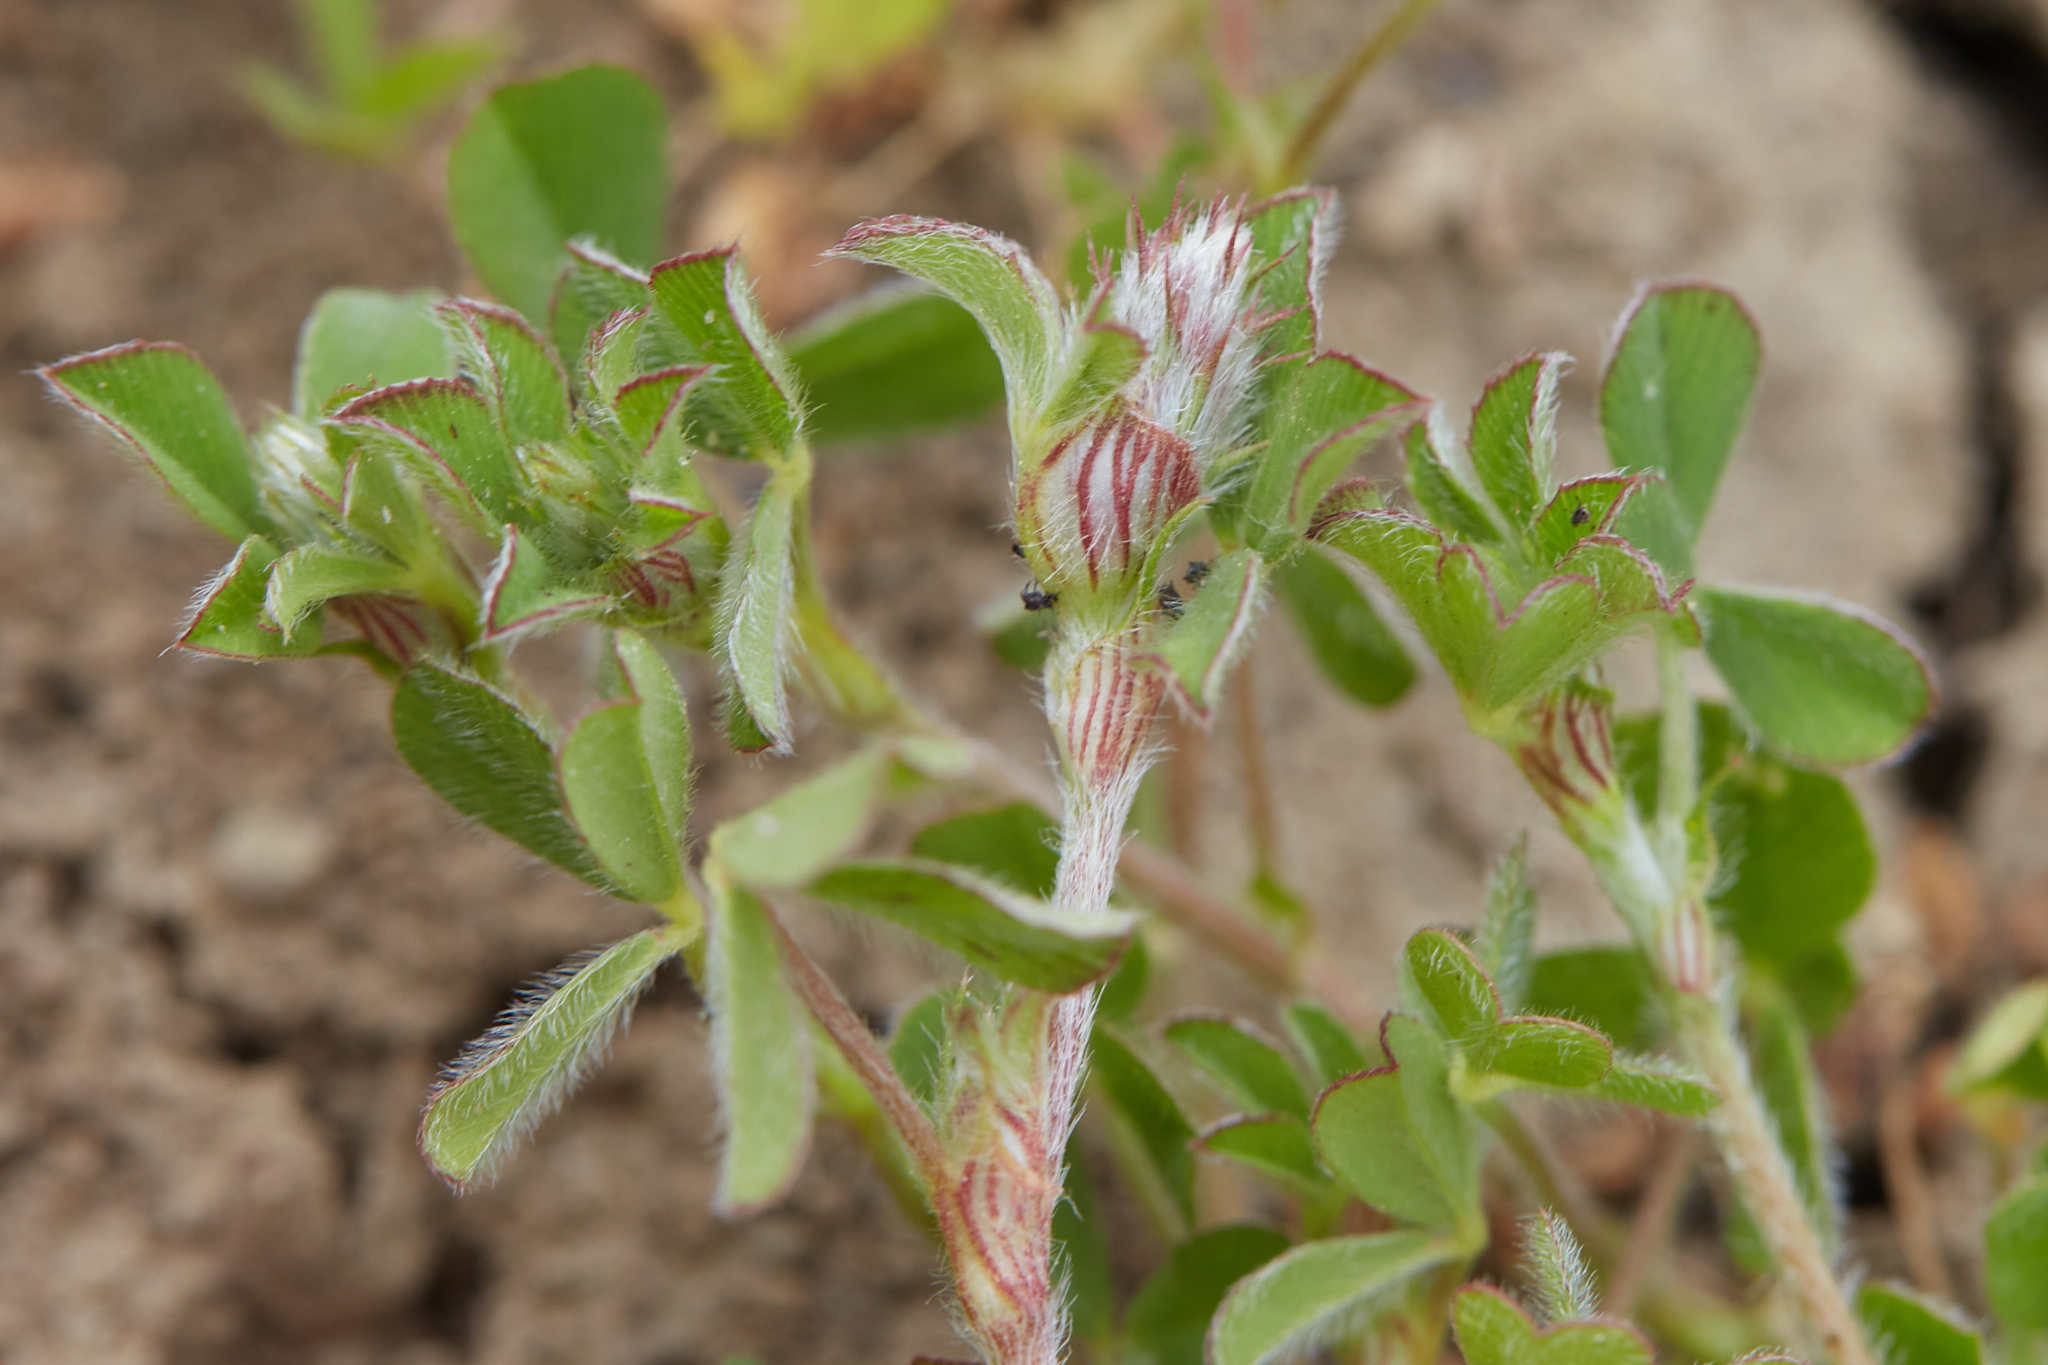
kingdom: Plantae
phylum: Tracheophyta
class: Magnoliopsida
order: Fabales
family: Fabaceae
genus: Trifolium
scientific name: Trifolium hirtum
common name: Rose clover
